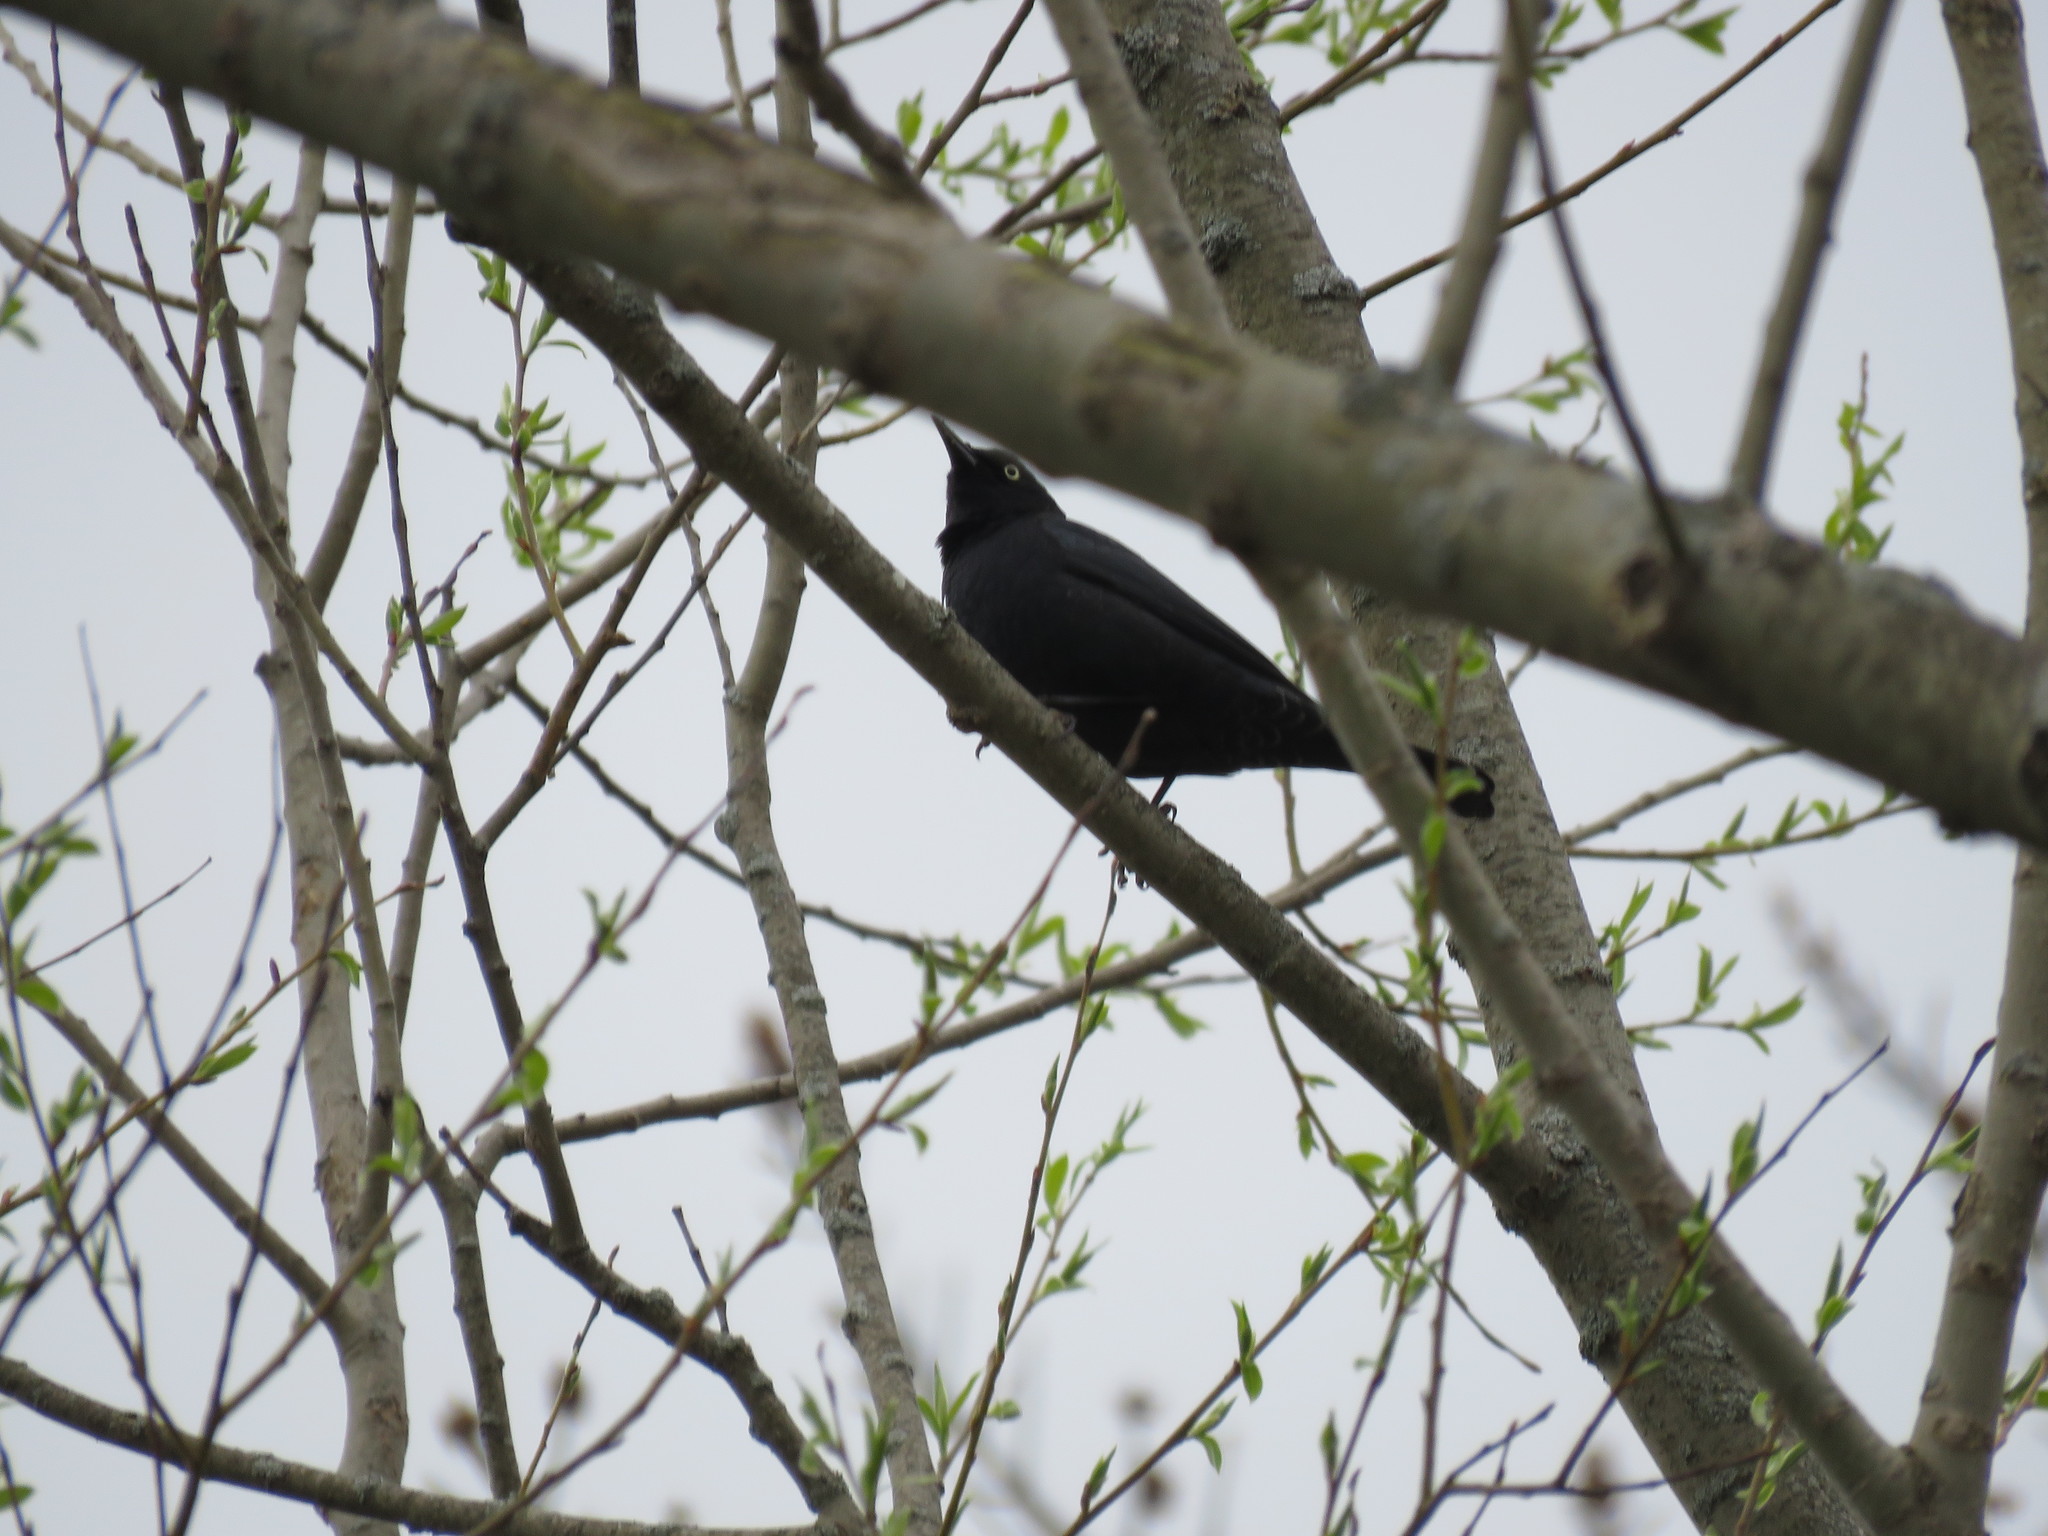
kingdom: Animalia
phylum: Chordata
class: Aves
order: Passeriformes
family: Icteridae
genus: Euphagus
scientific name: Euphagus carolinus
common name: Rusty blackbird
